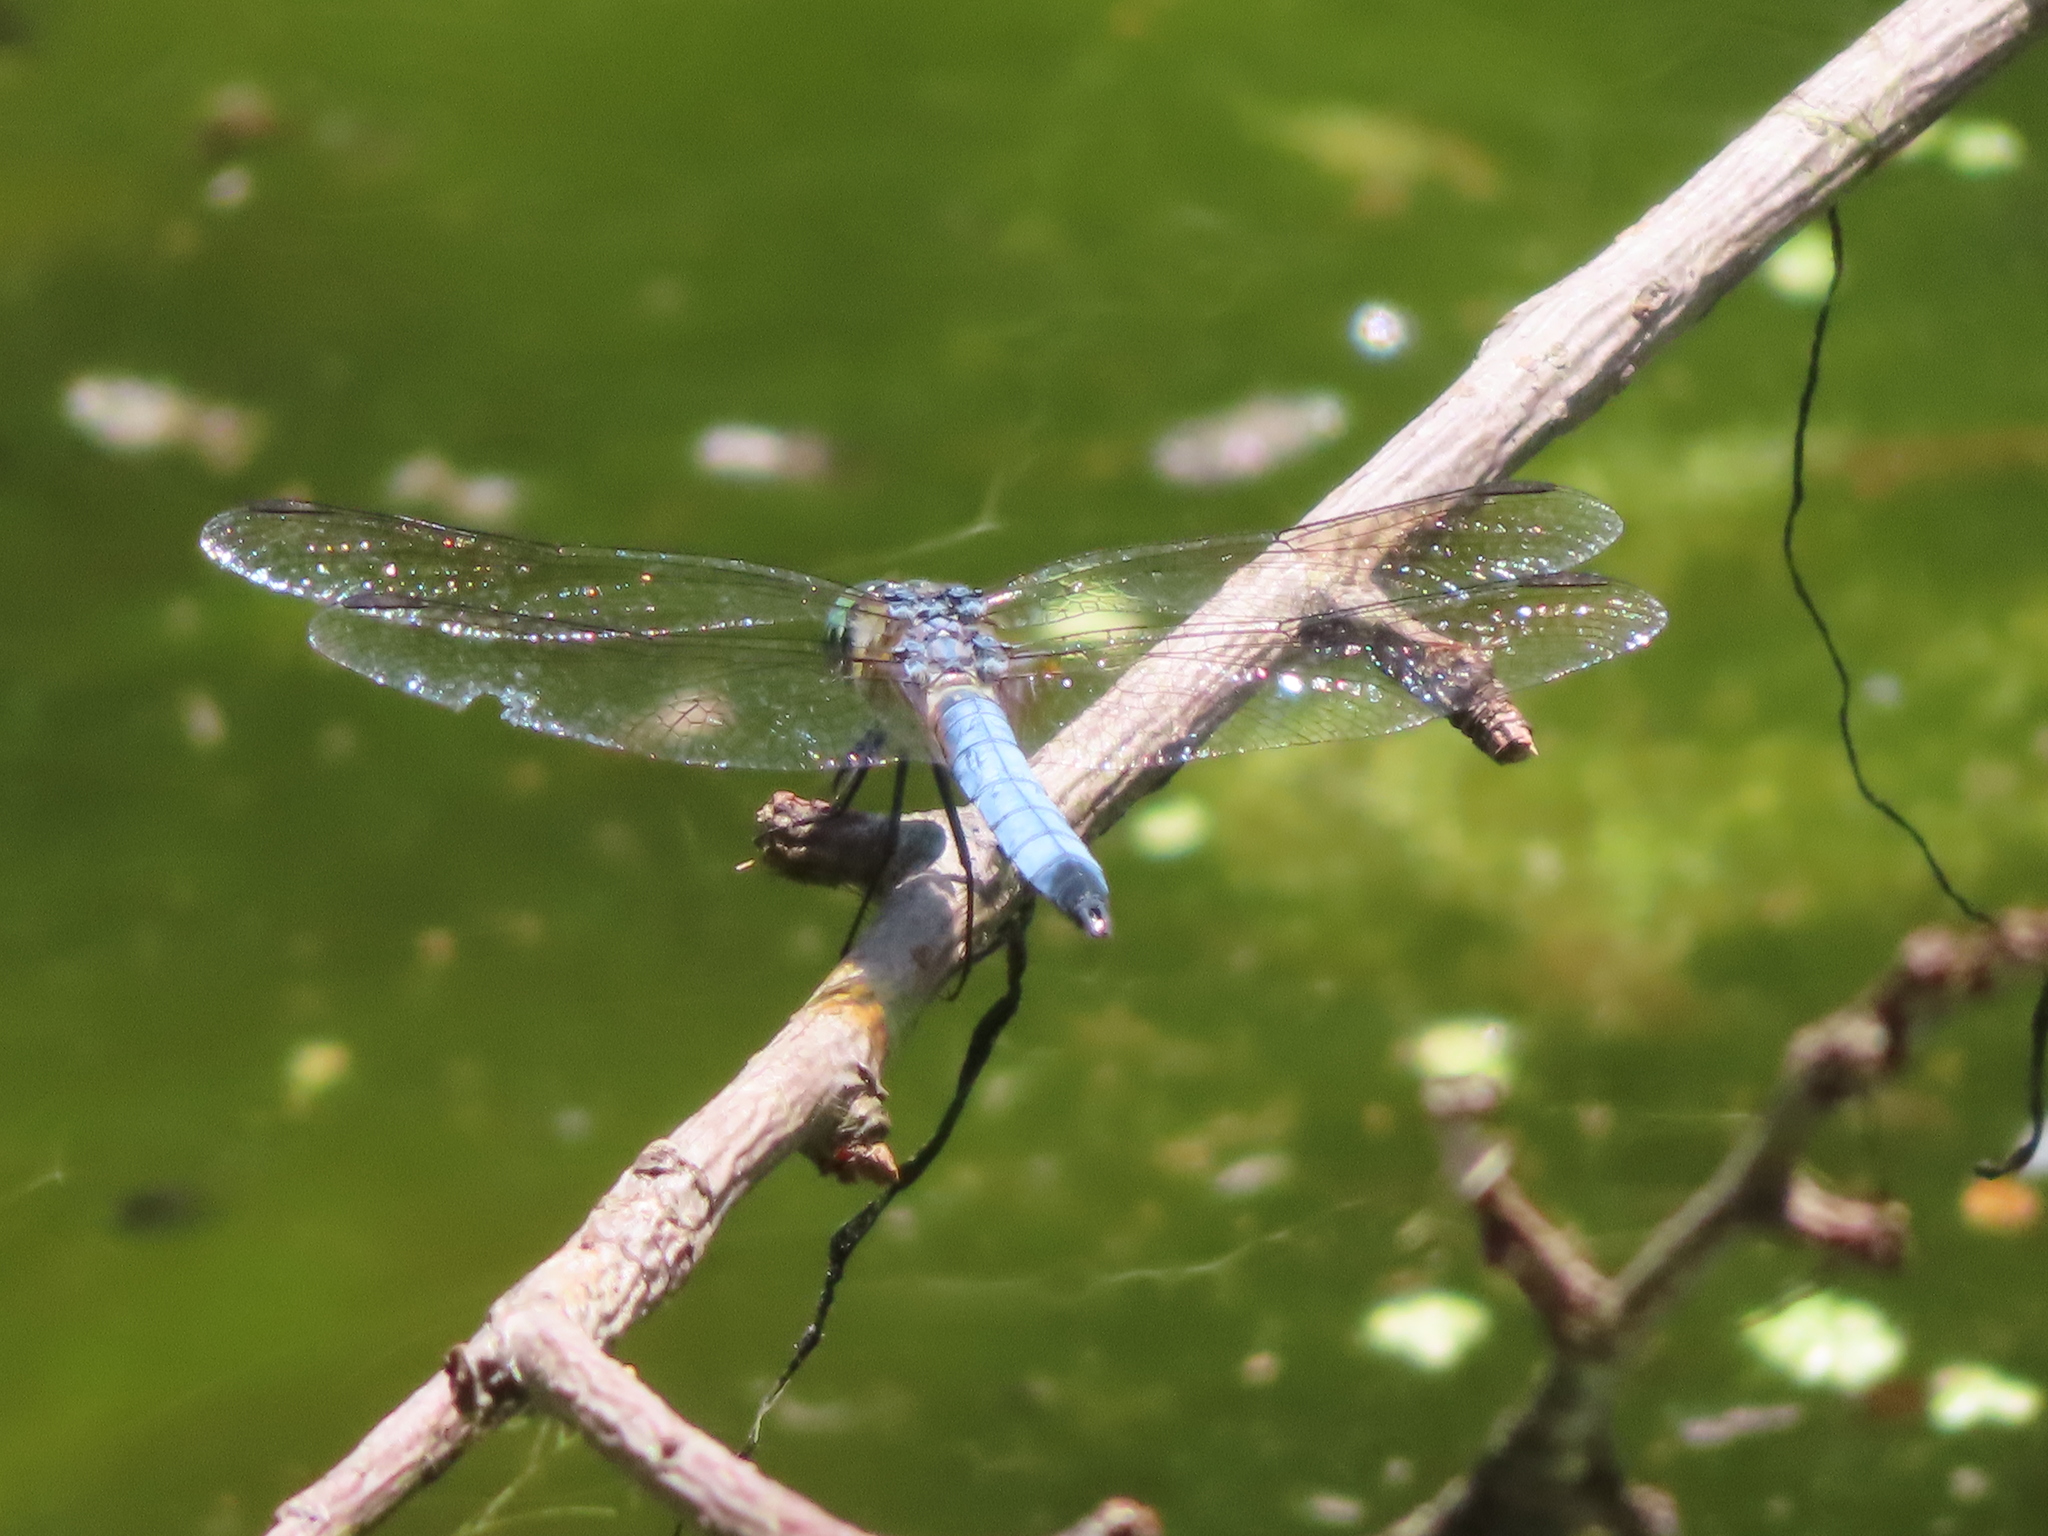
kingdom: Animalia
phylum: Arthropoda
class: Insecta
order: Odonata
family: Libellulidae
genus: Pachydiplax
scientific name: Pachydiplax longipennis
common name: Blue dasher
